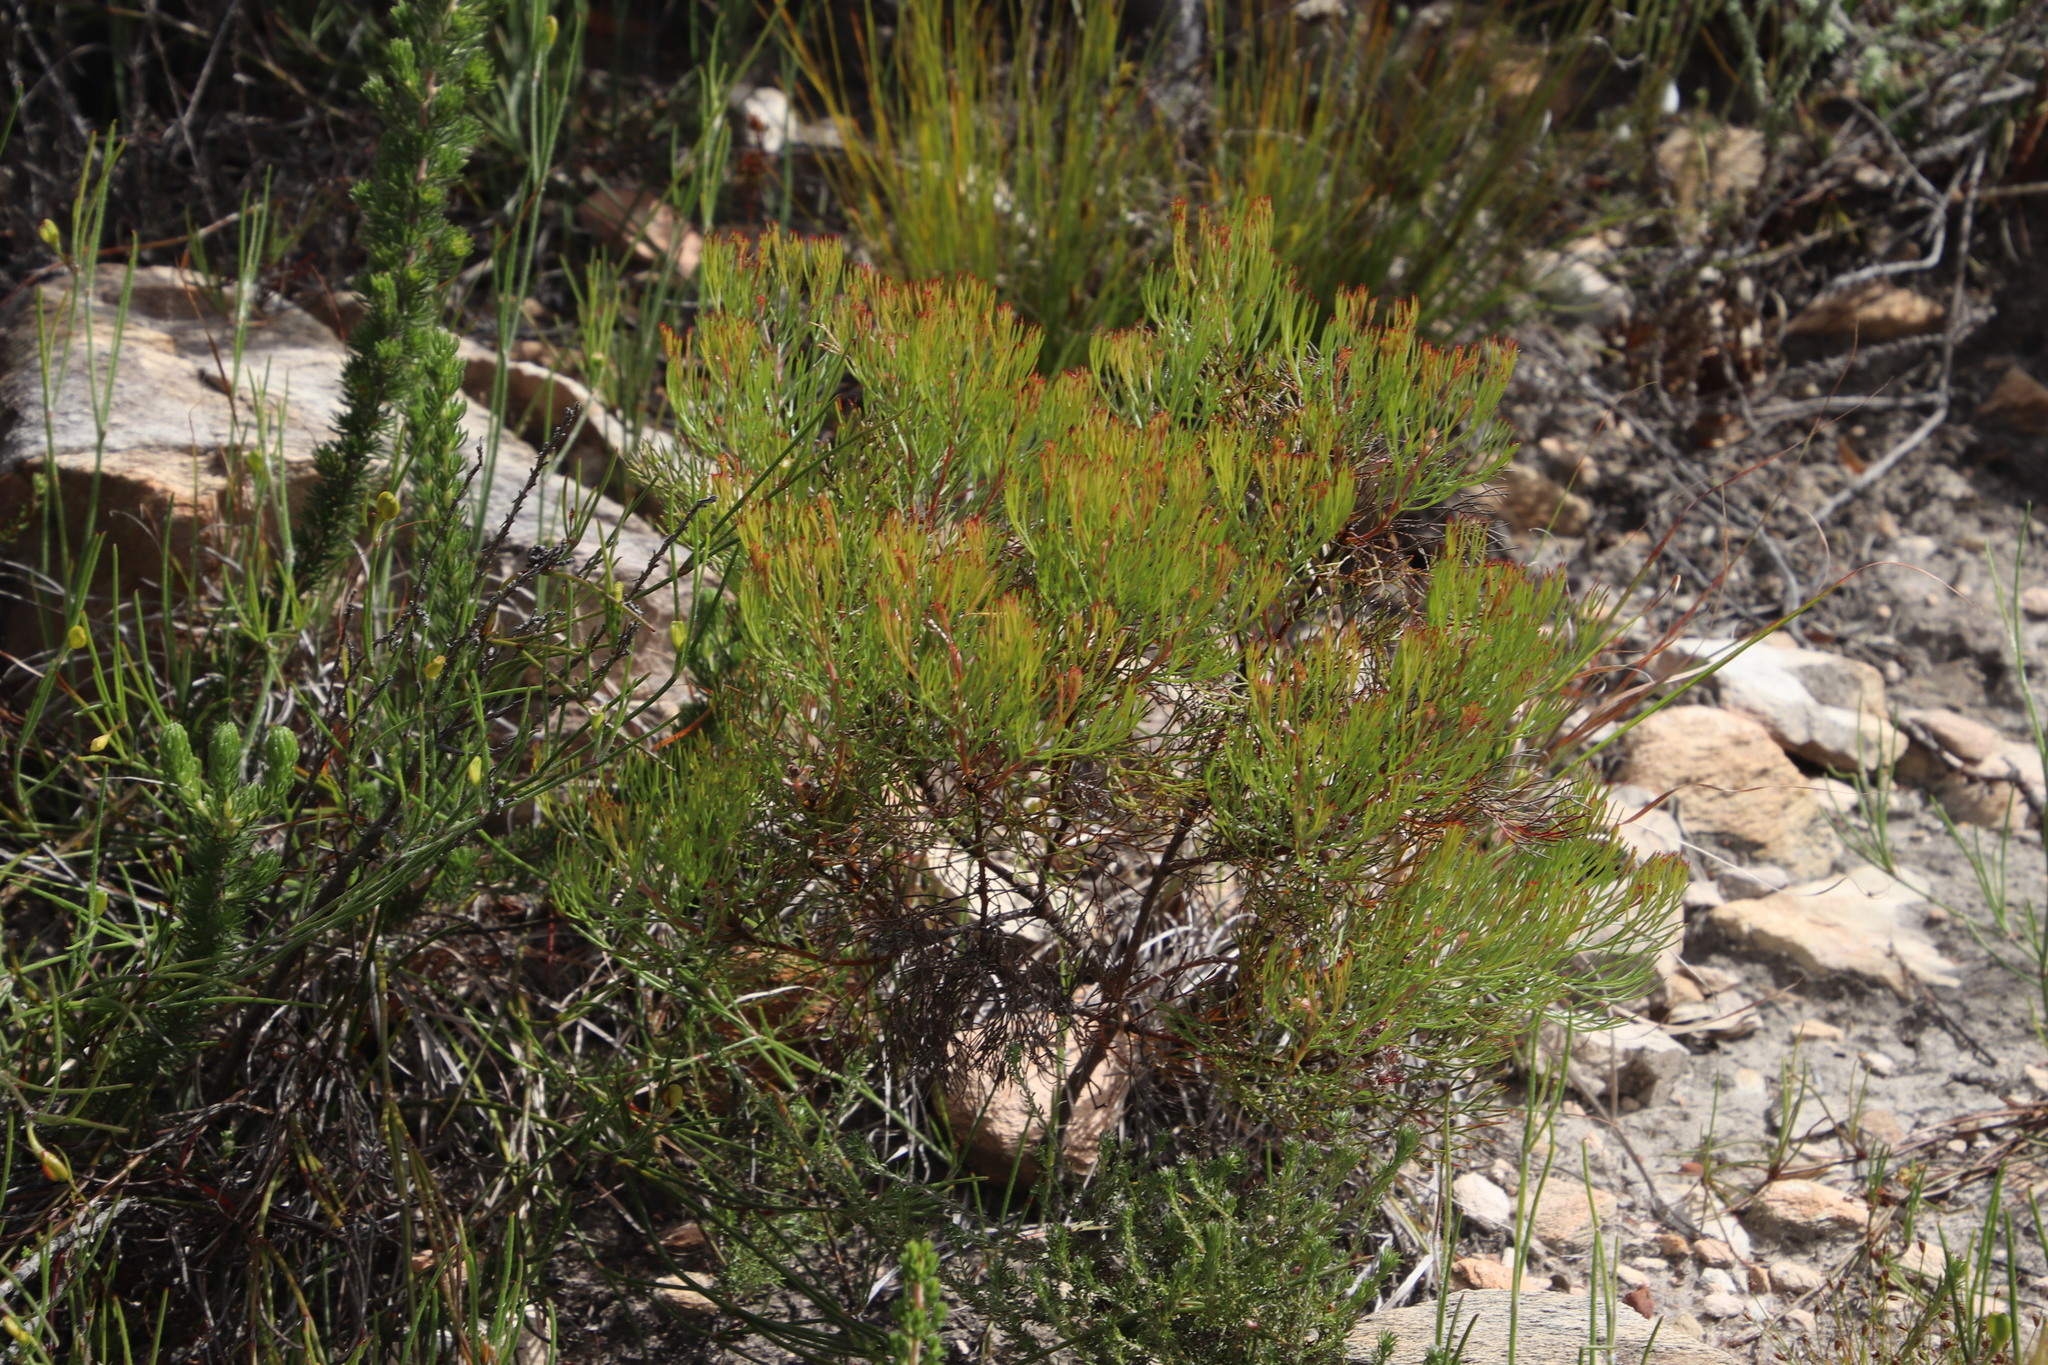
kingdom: Plantae
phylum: Tracheophyta
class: Magnoliopsida
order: Proteales
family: Proteaceae
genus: Serruria
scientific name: Serruria fasciflora
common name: Common pin spiderhead
